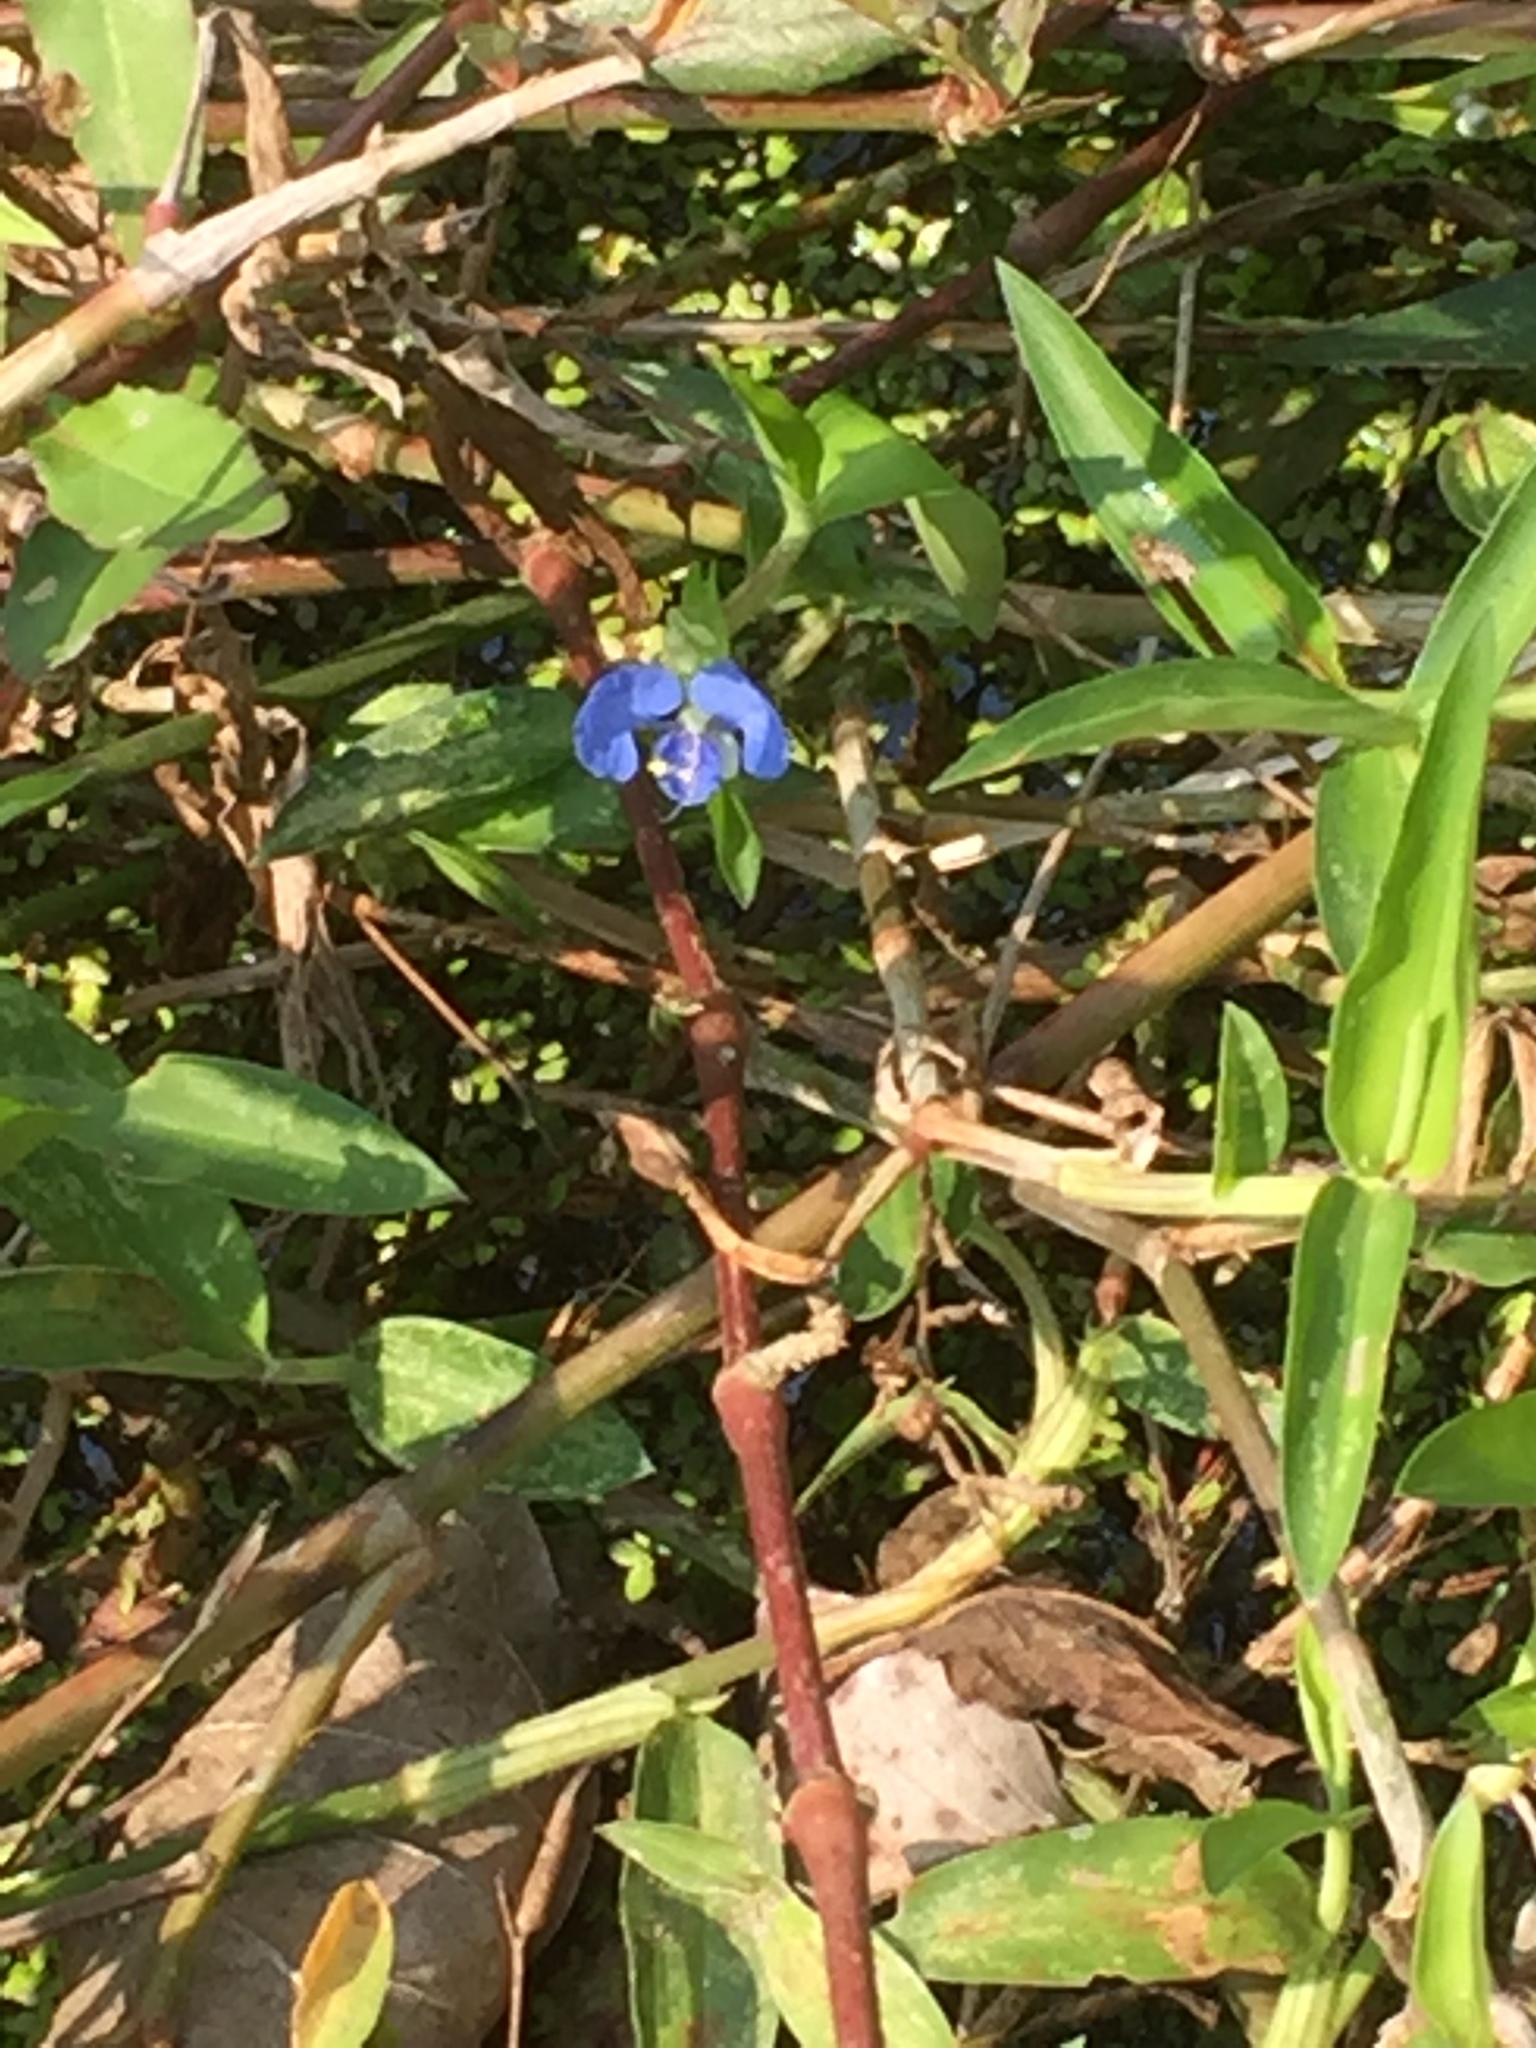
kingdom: Plantae
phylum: Tracheophyta
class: Liliopsida
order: Commelinales
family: Commelinaceae
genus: Commelina
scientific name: Commelina diffusa
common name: Climbing dayflower
